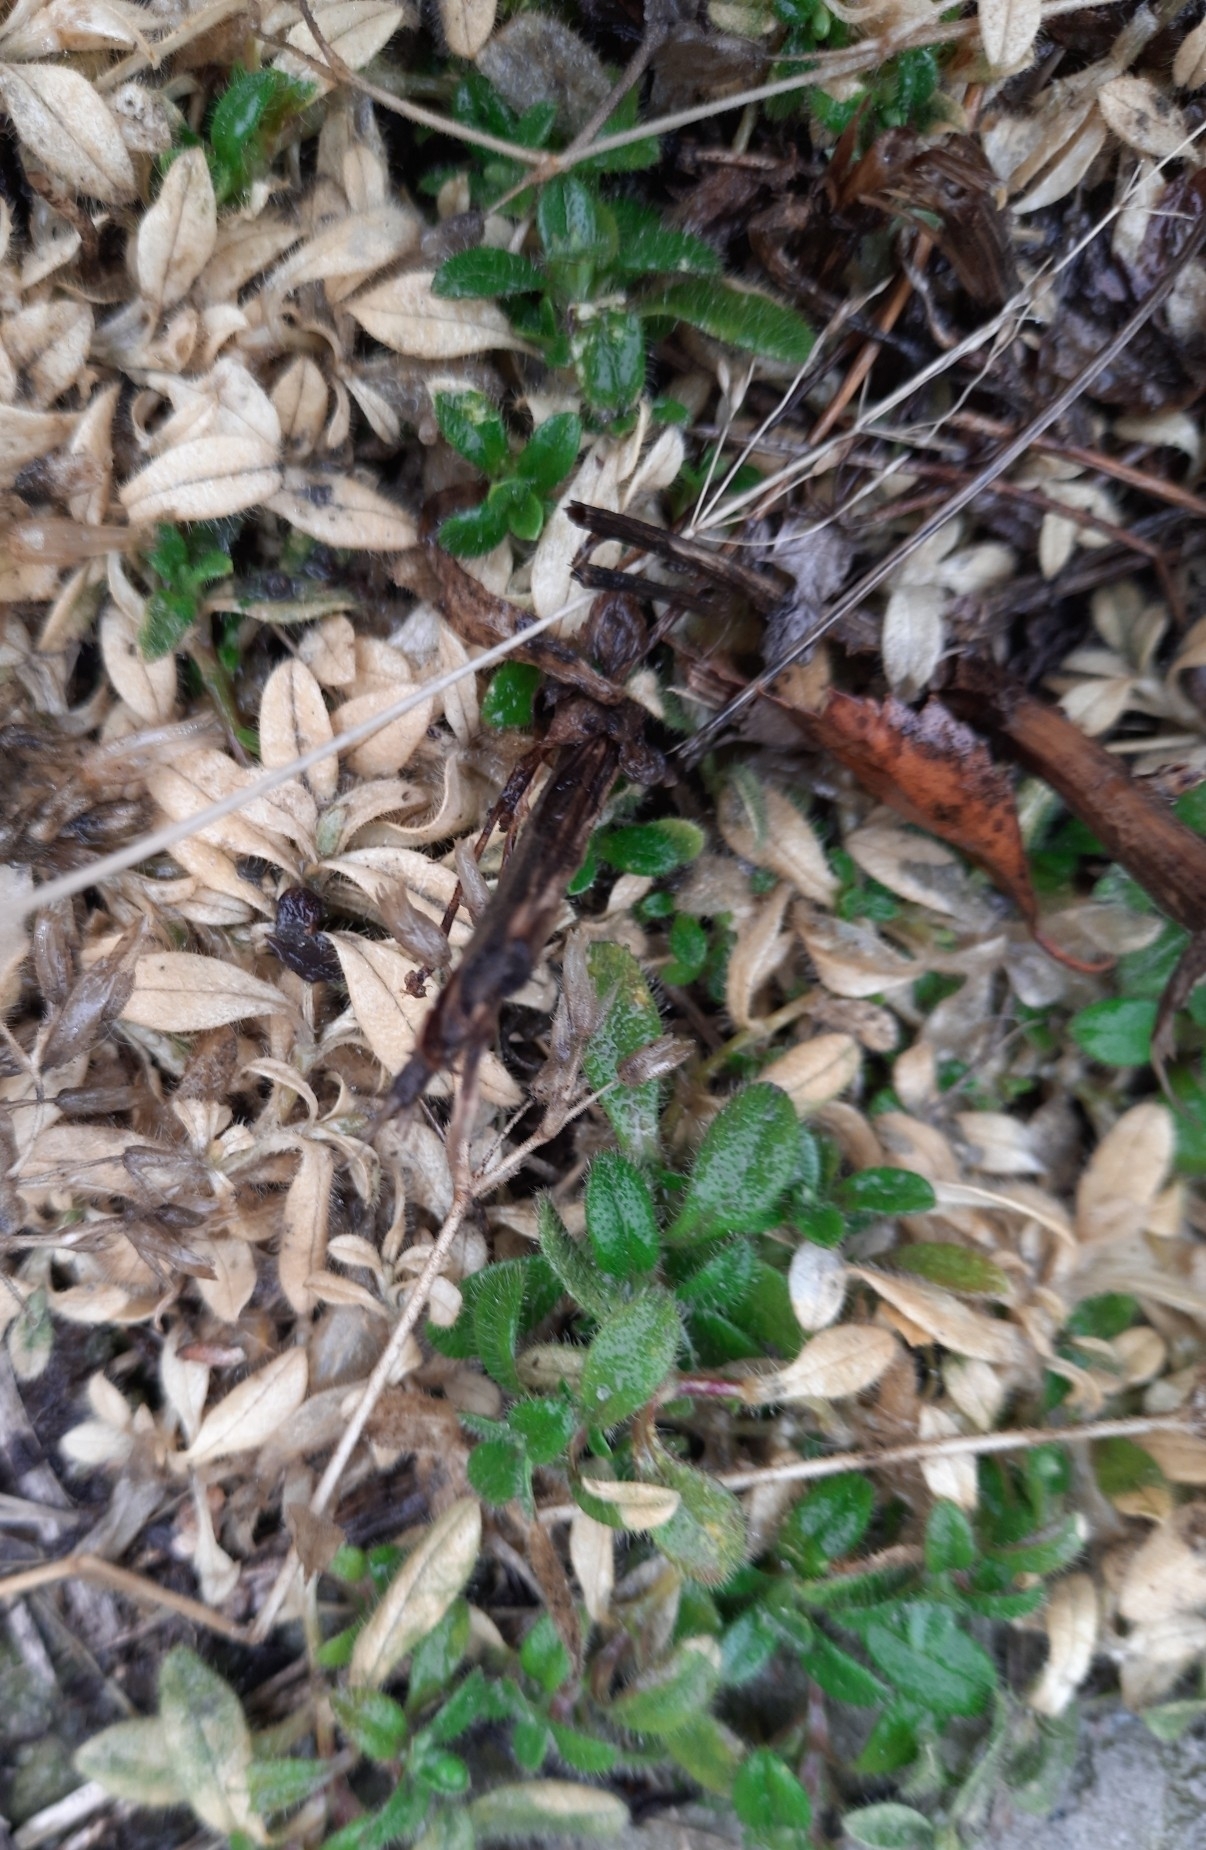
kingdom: Plantae
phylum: Tracheophyta
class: Magnoliopsida
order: Caryophyllales
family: Caryophyllaceae
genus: Cerastium
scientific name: Cerastium holosteoides
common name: Big chickweed
